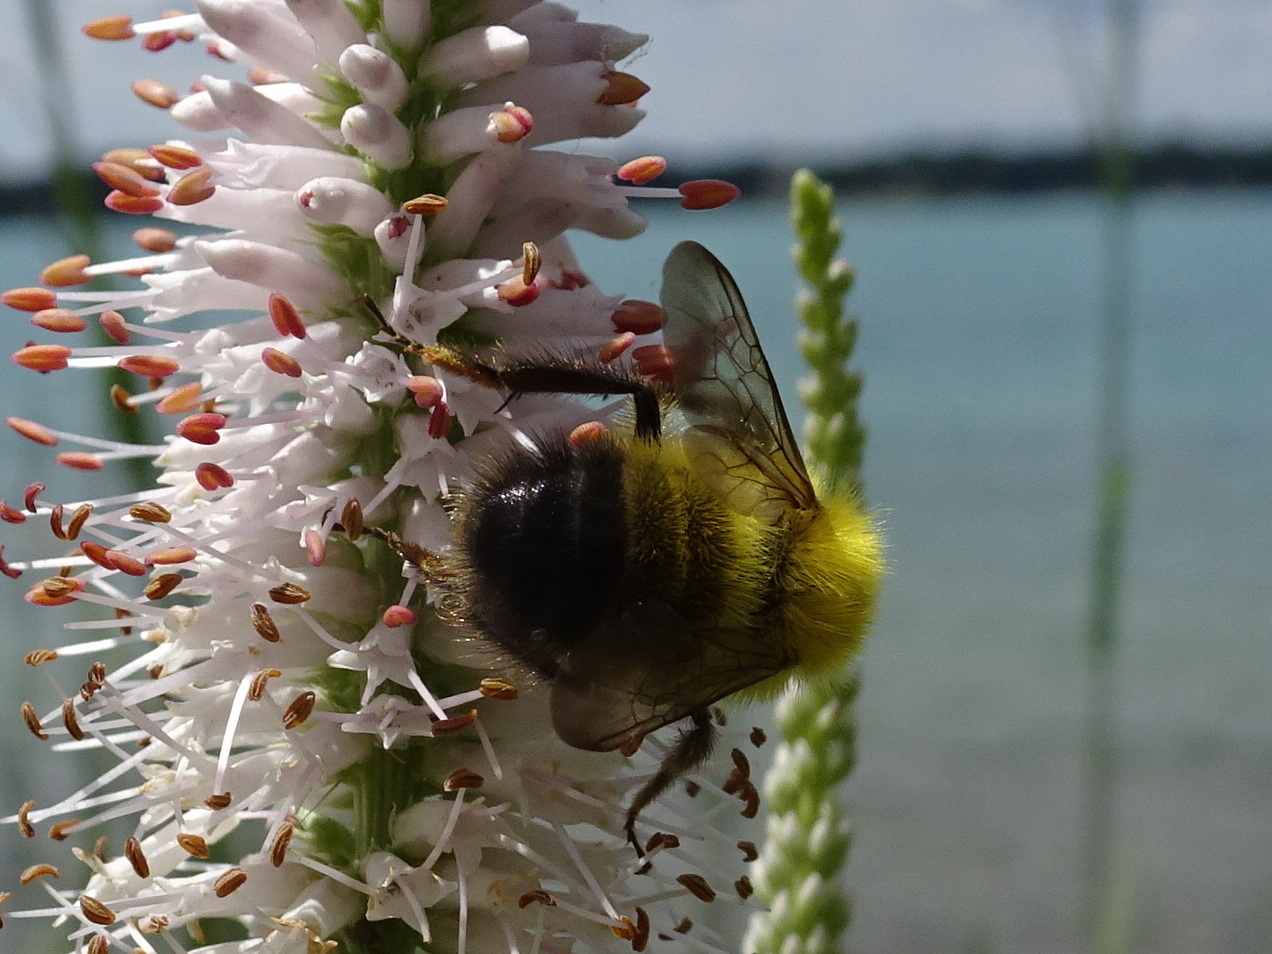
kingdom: Animalia
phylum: Arthropoda
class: Insecta
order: Hymenoptera
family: Apidae
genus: Bombus
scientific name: Bombus perplexus
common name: Confusing bumble bee
